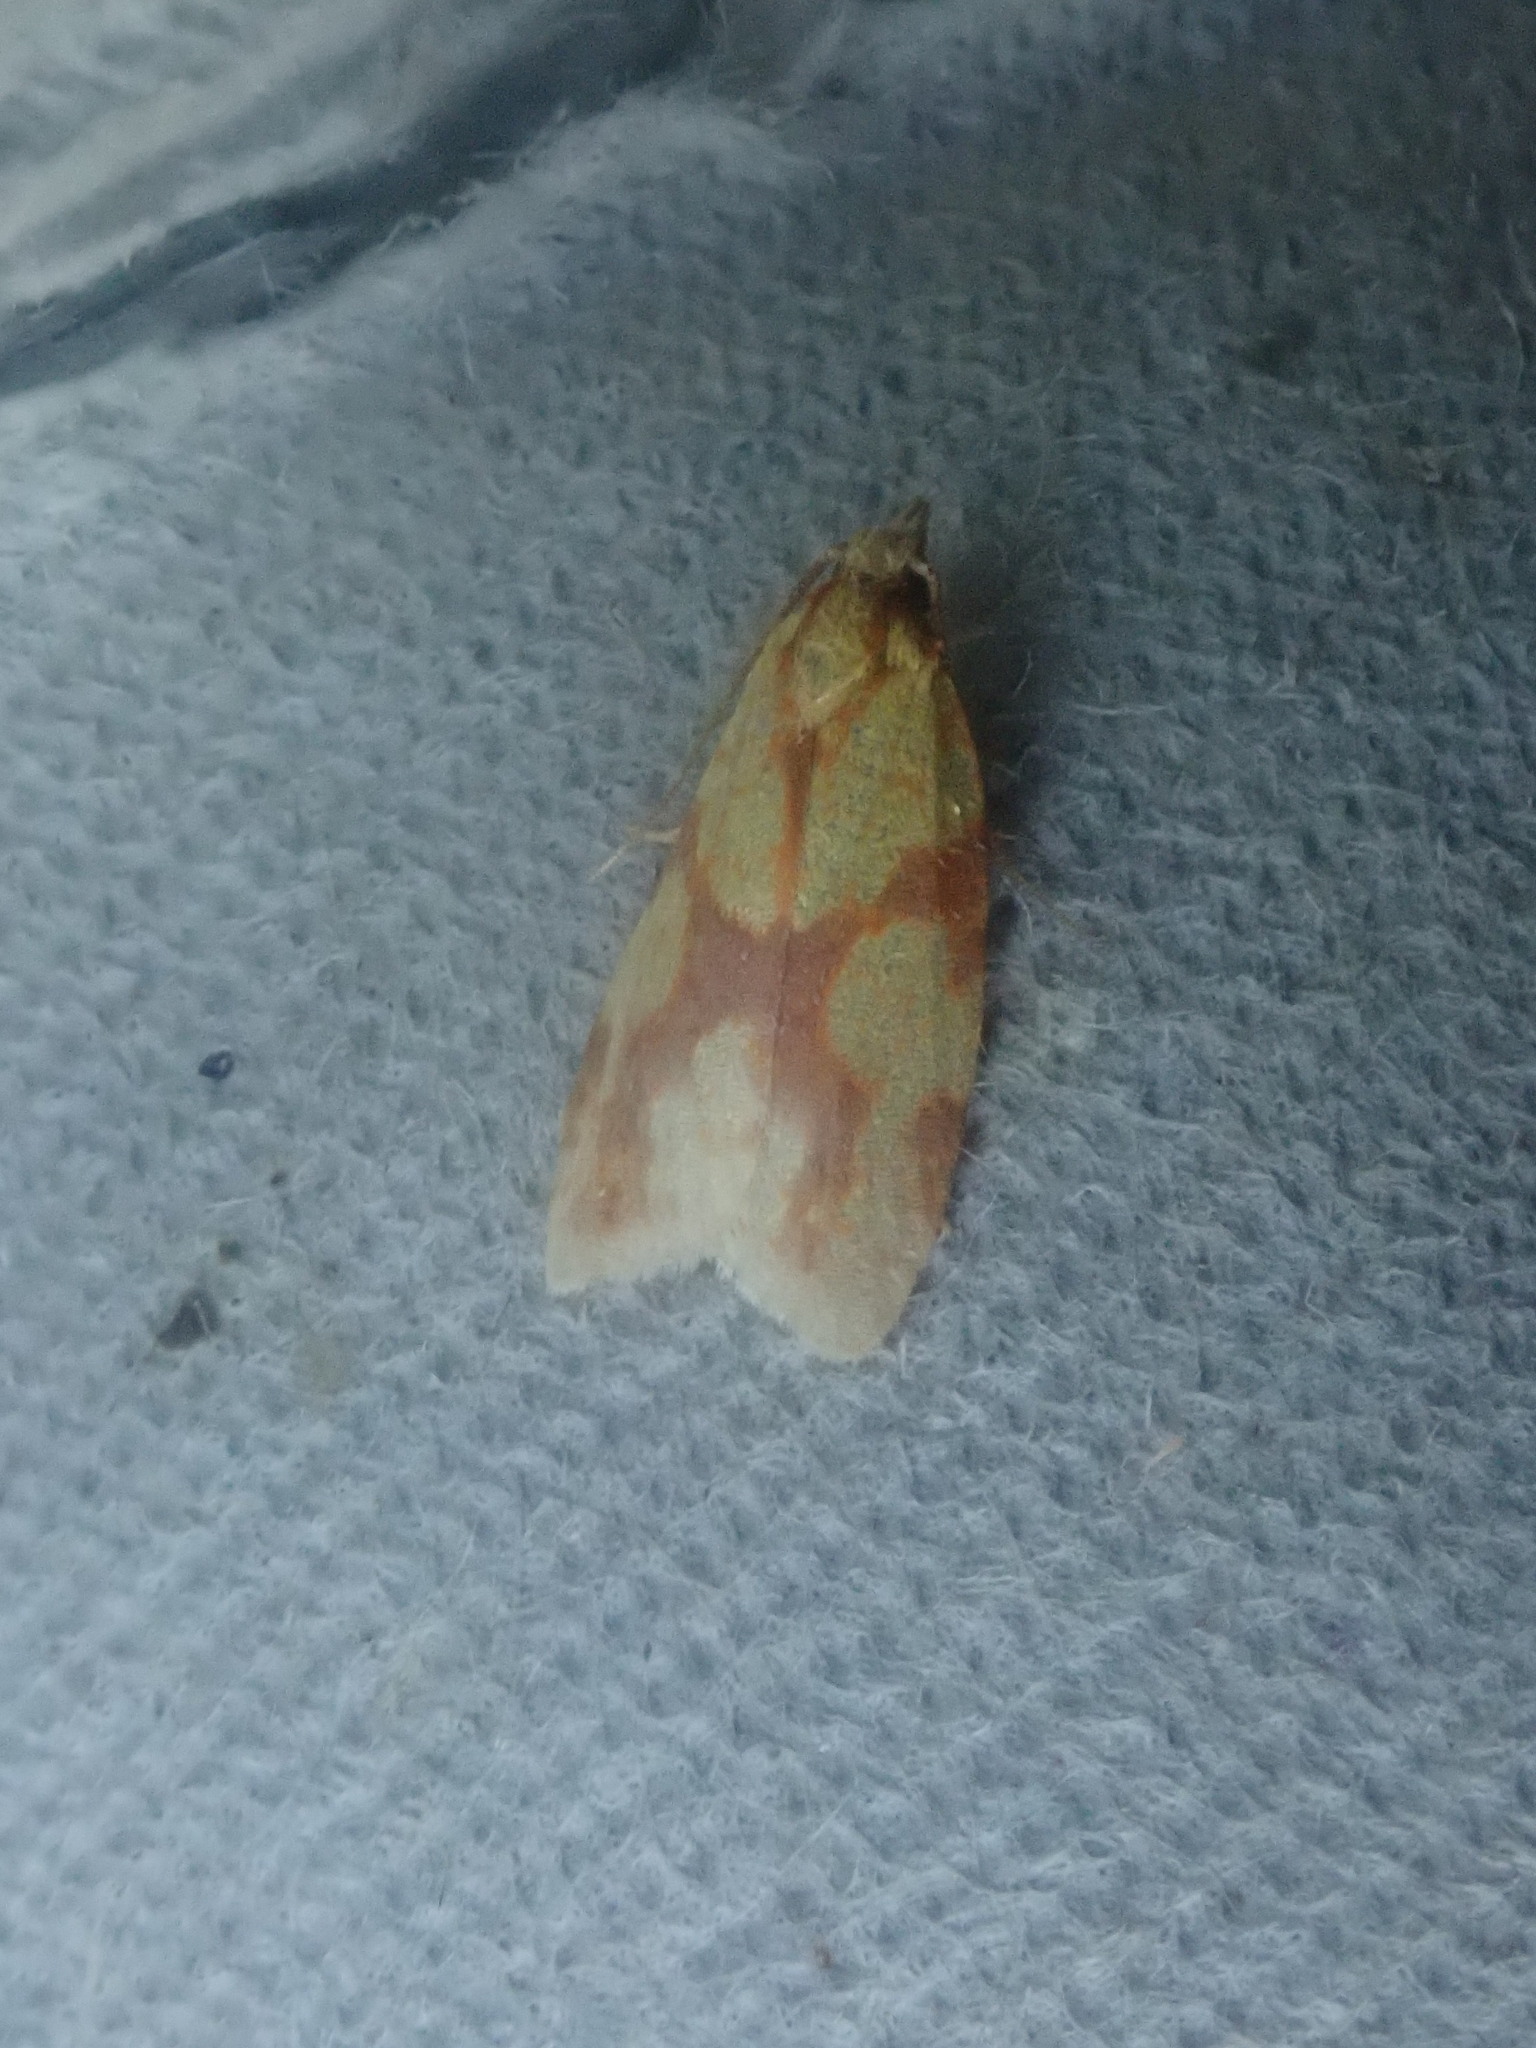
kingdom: Animalia
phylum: Arthropoda
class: Insecta
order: Lepidoptera
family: Tortricidae
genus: Sparganothis
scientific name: Sparganothis sulfureana
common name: Sparganothis fruitworm moth
